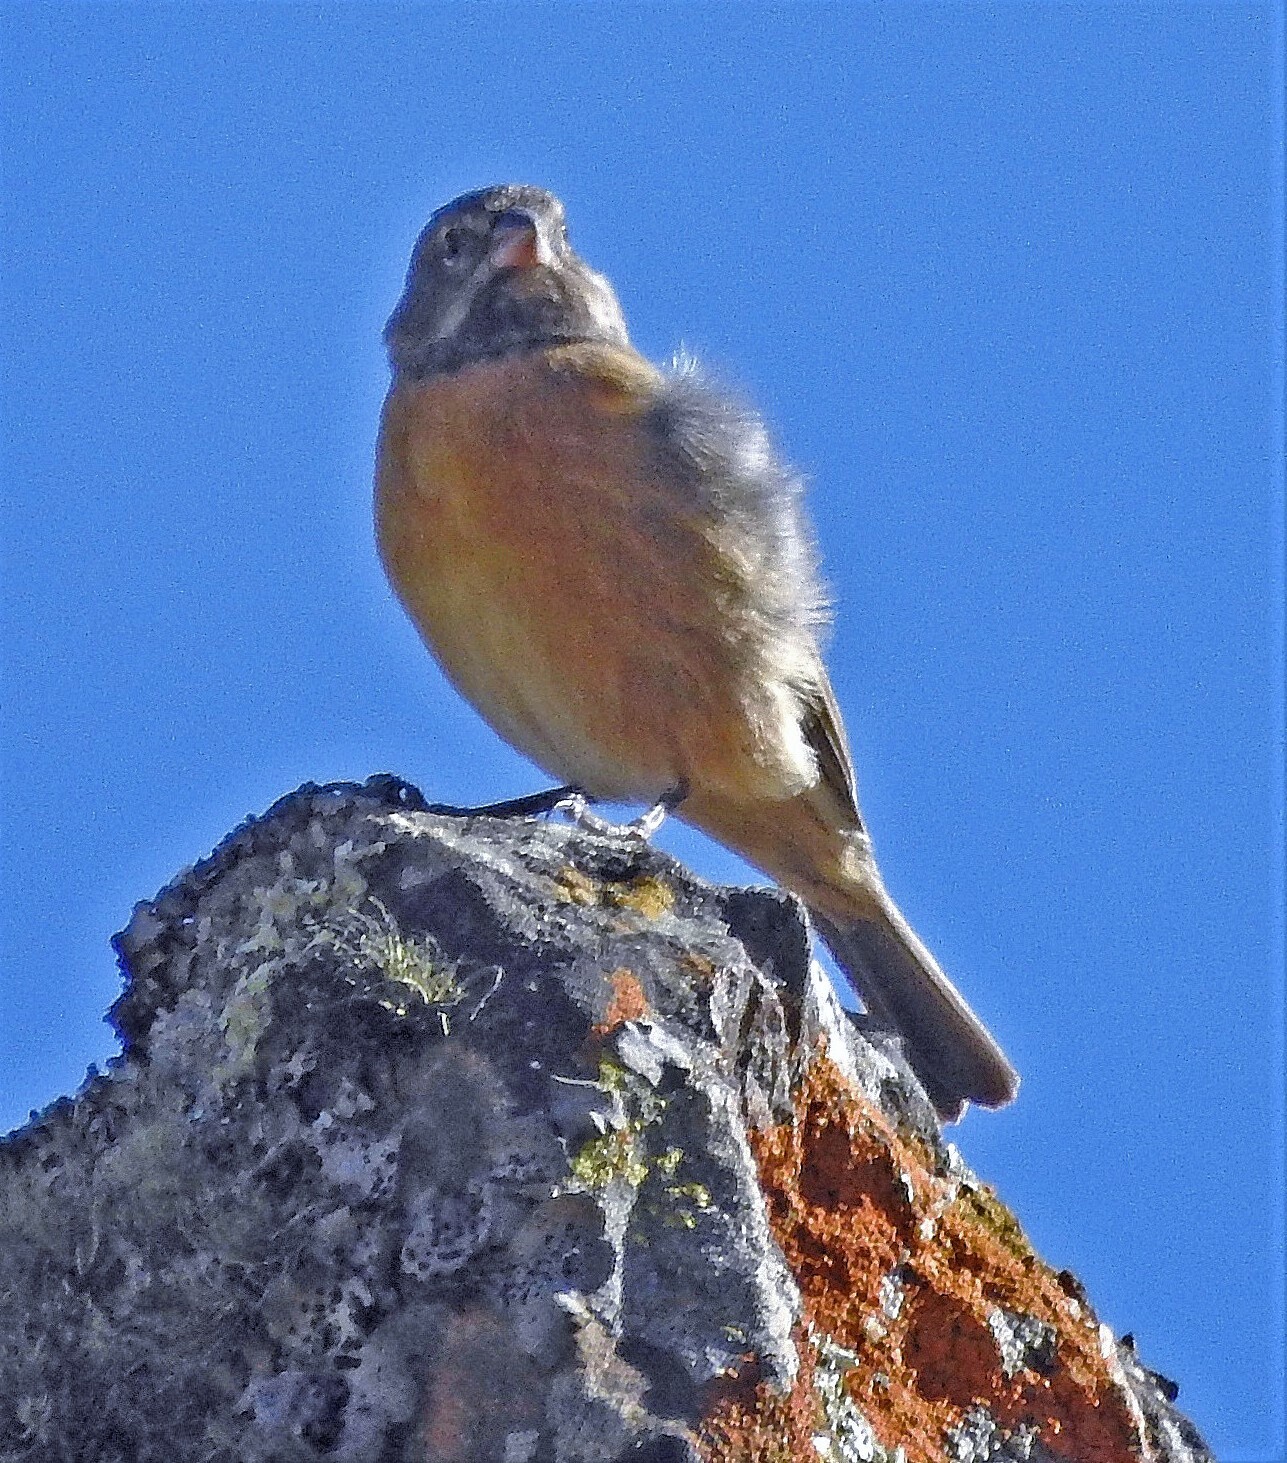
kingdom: Animalia
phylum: Chordata
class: Aves
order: Passeriformes
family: Thraupidae
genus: Phrygilus
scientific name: Phrygilus gayi
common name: Grey-hooded sierra finch
